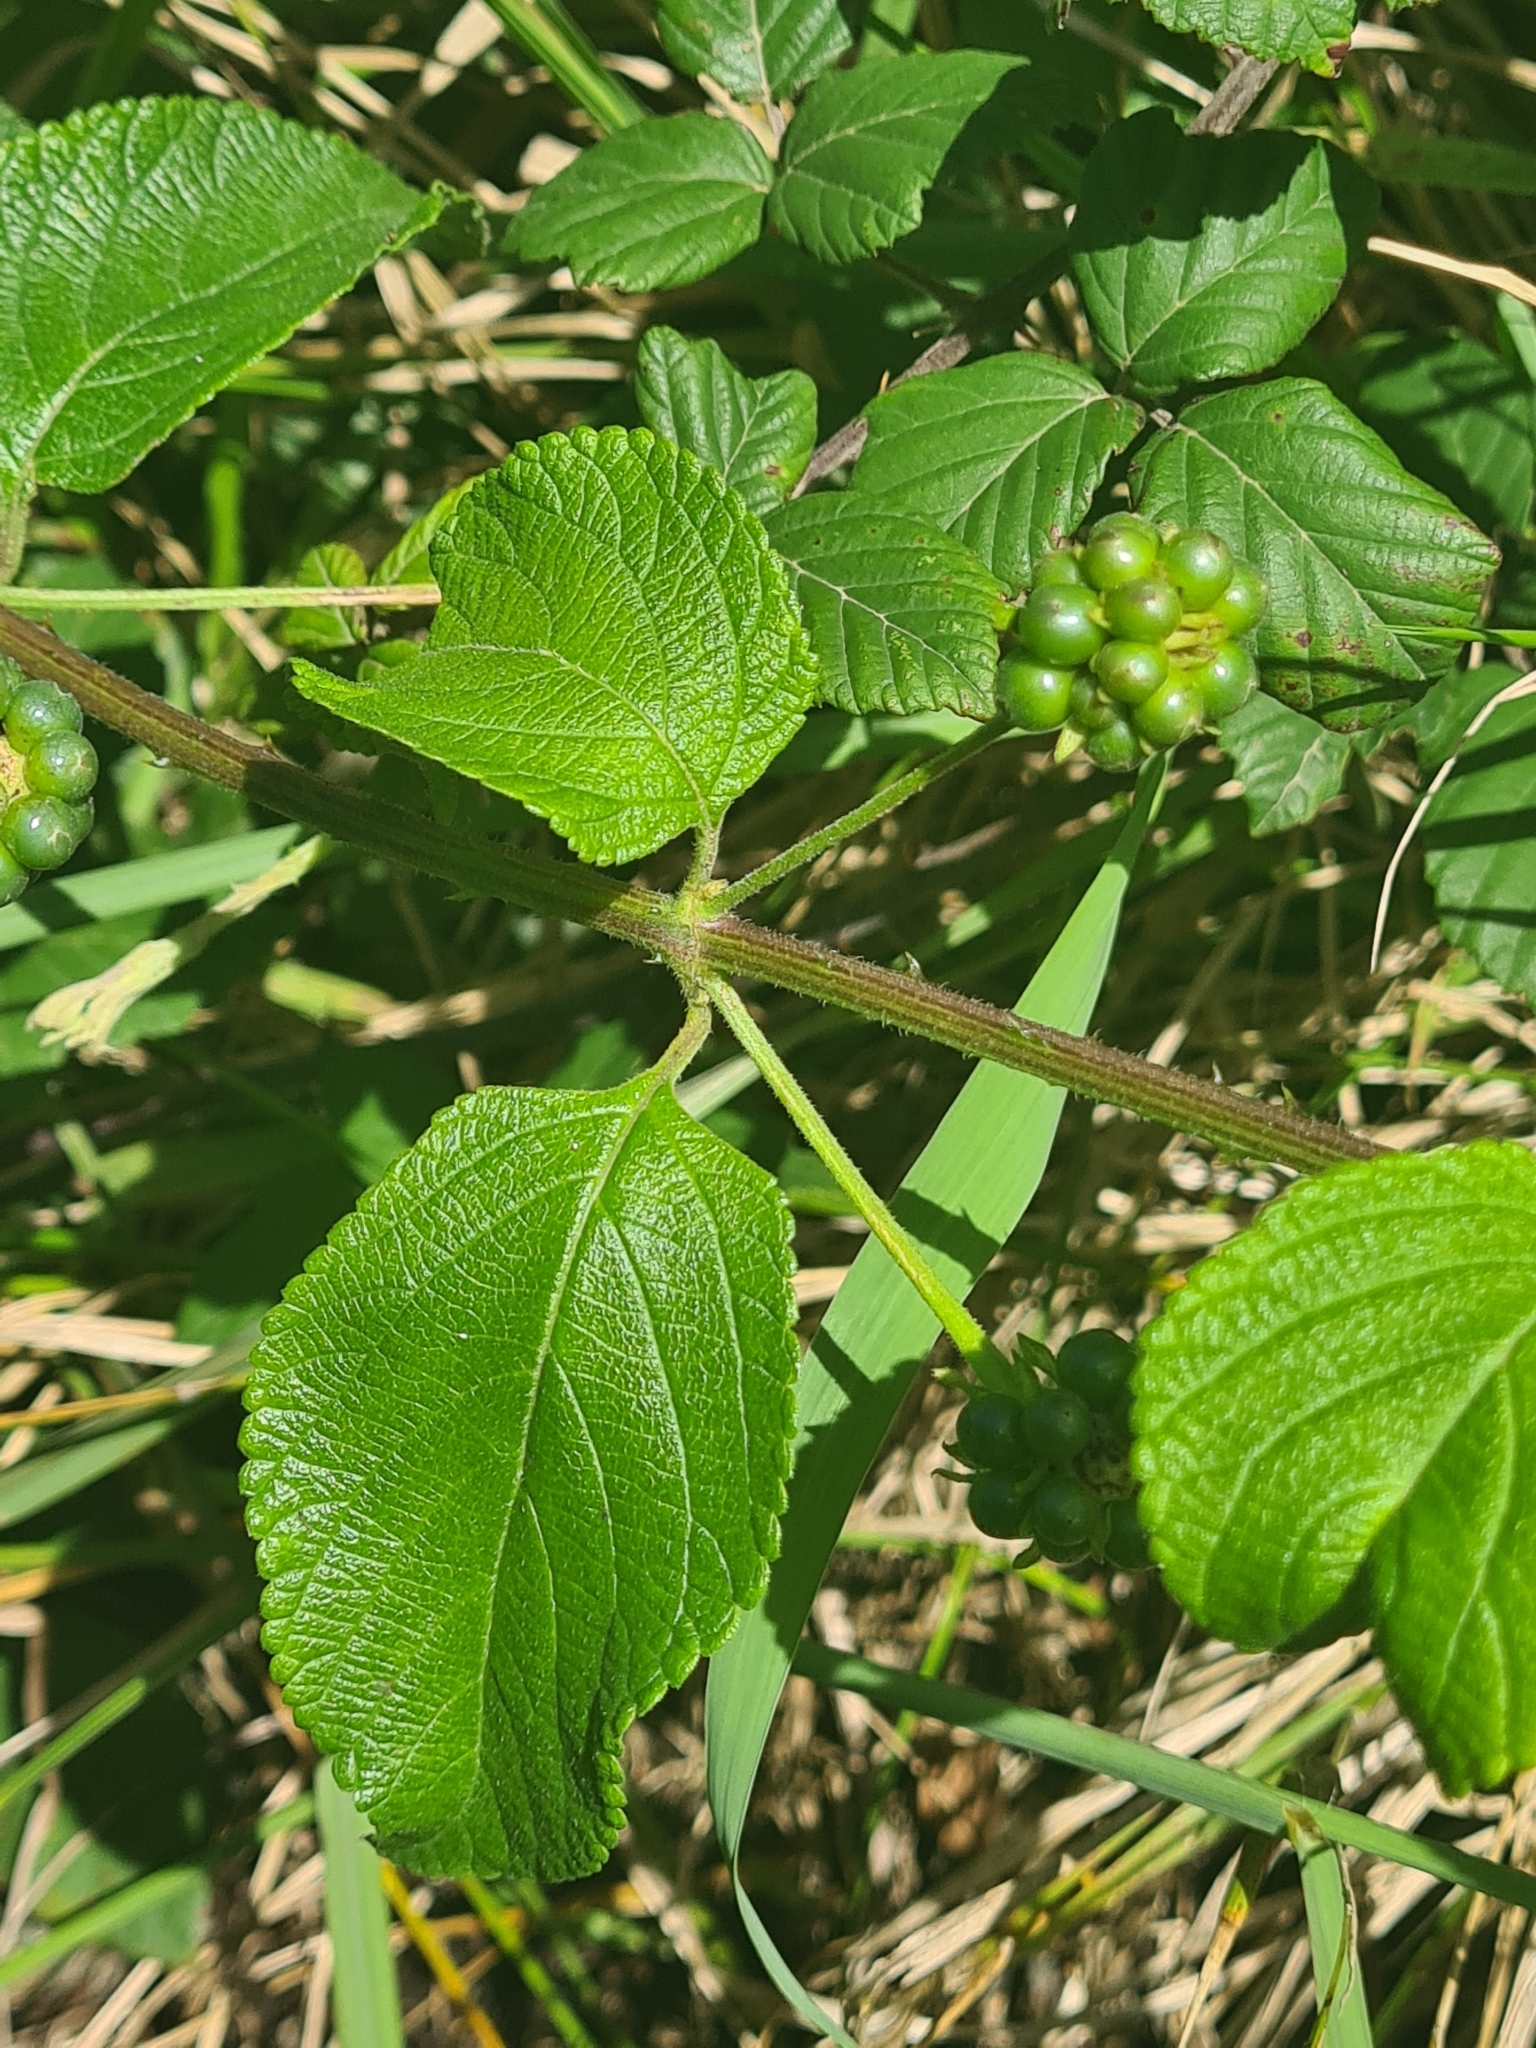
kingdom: Plantae
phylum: Tracheophyta
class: Magnoliopsida
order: Lamiales
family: Verbenaceae
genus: Lantana
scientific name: Lantana camara
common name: Lantana
